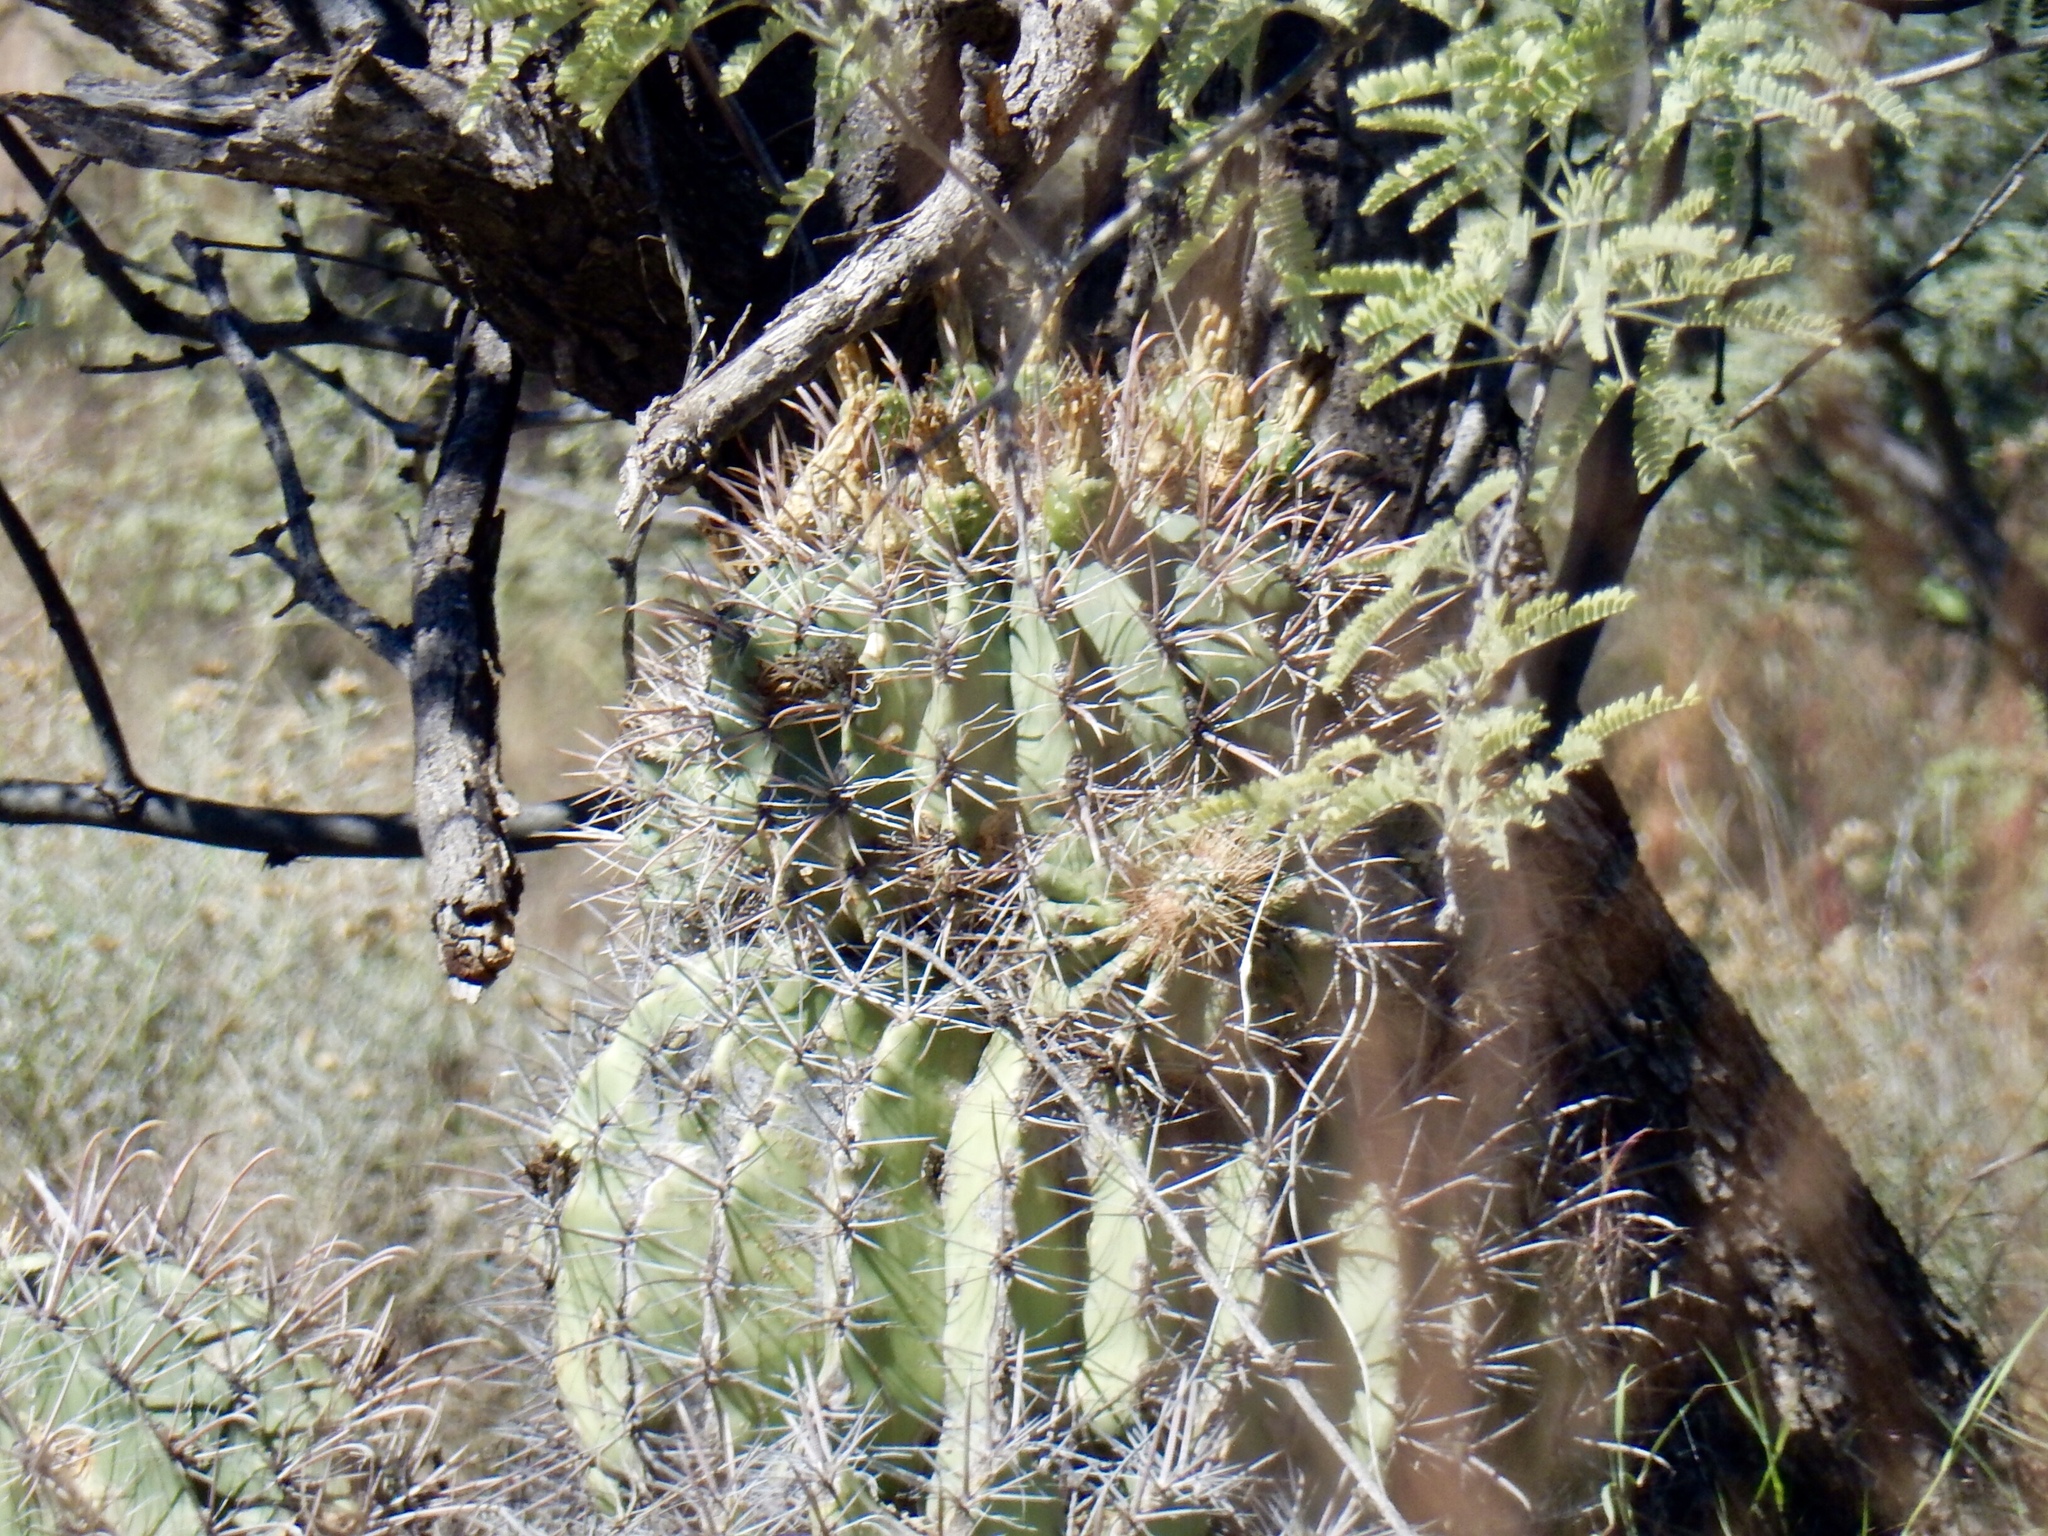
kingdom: Plantae
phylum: Tracheophyta
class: Magnoliopsida
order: Caryophyllales
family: Cactaceae
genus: Ferocactus
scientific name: Ferocactus wislizeni
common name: Candy barrel cactus
